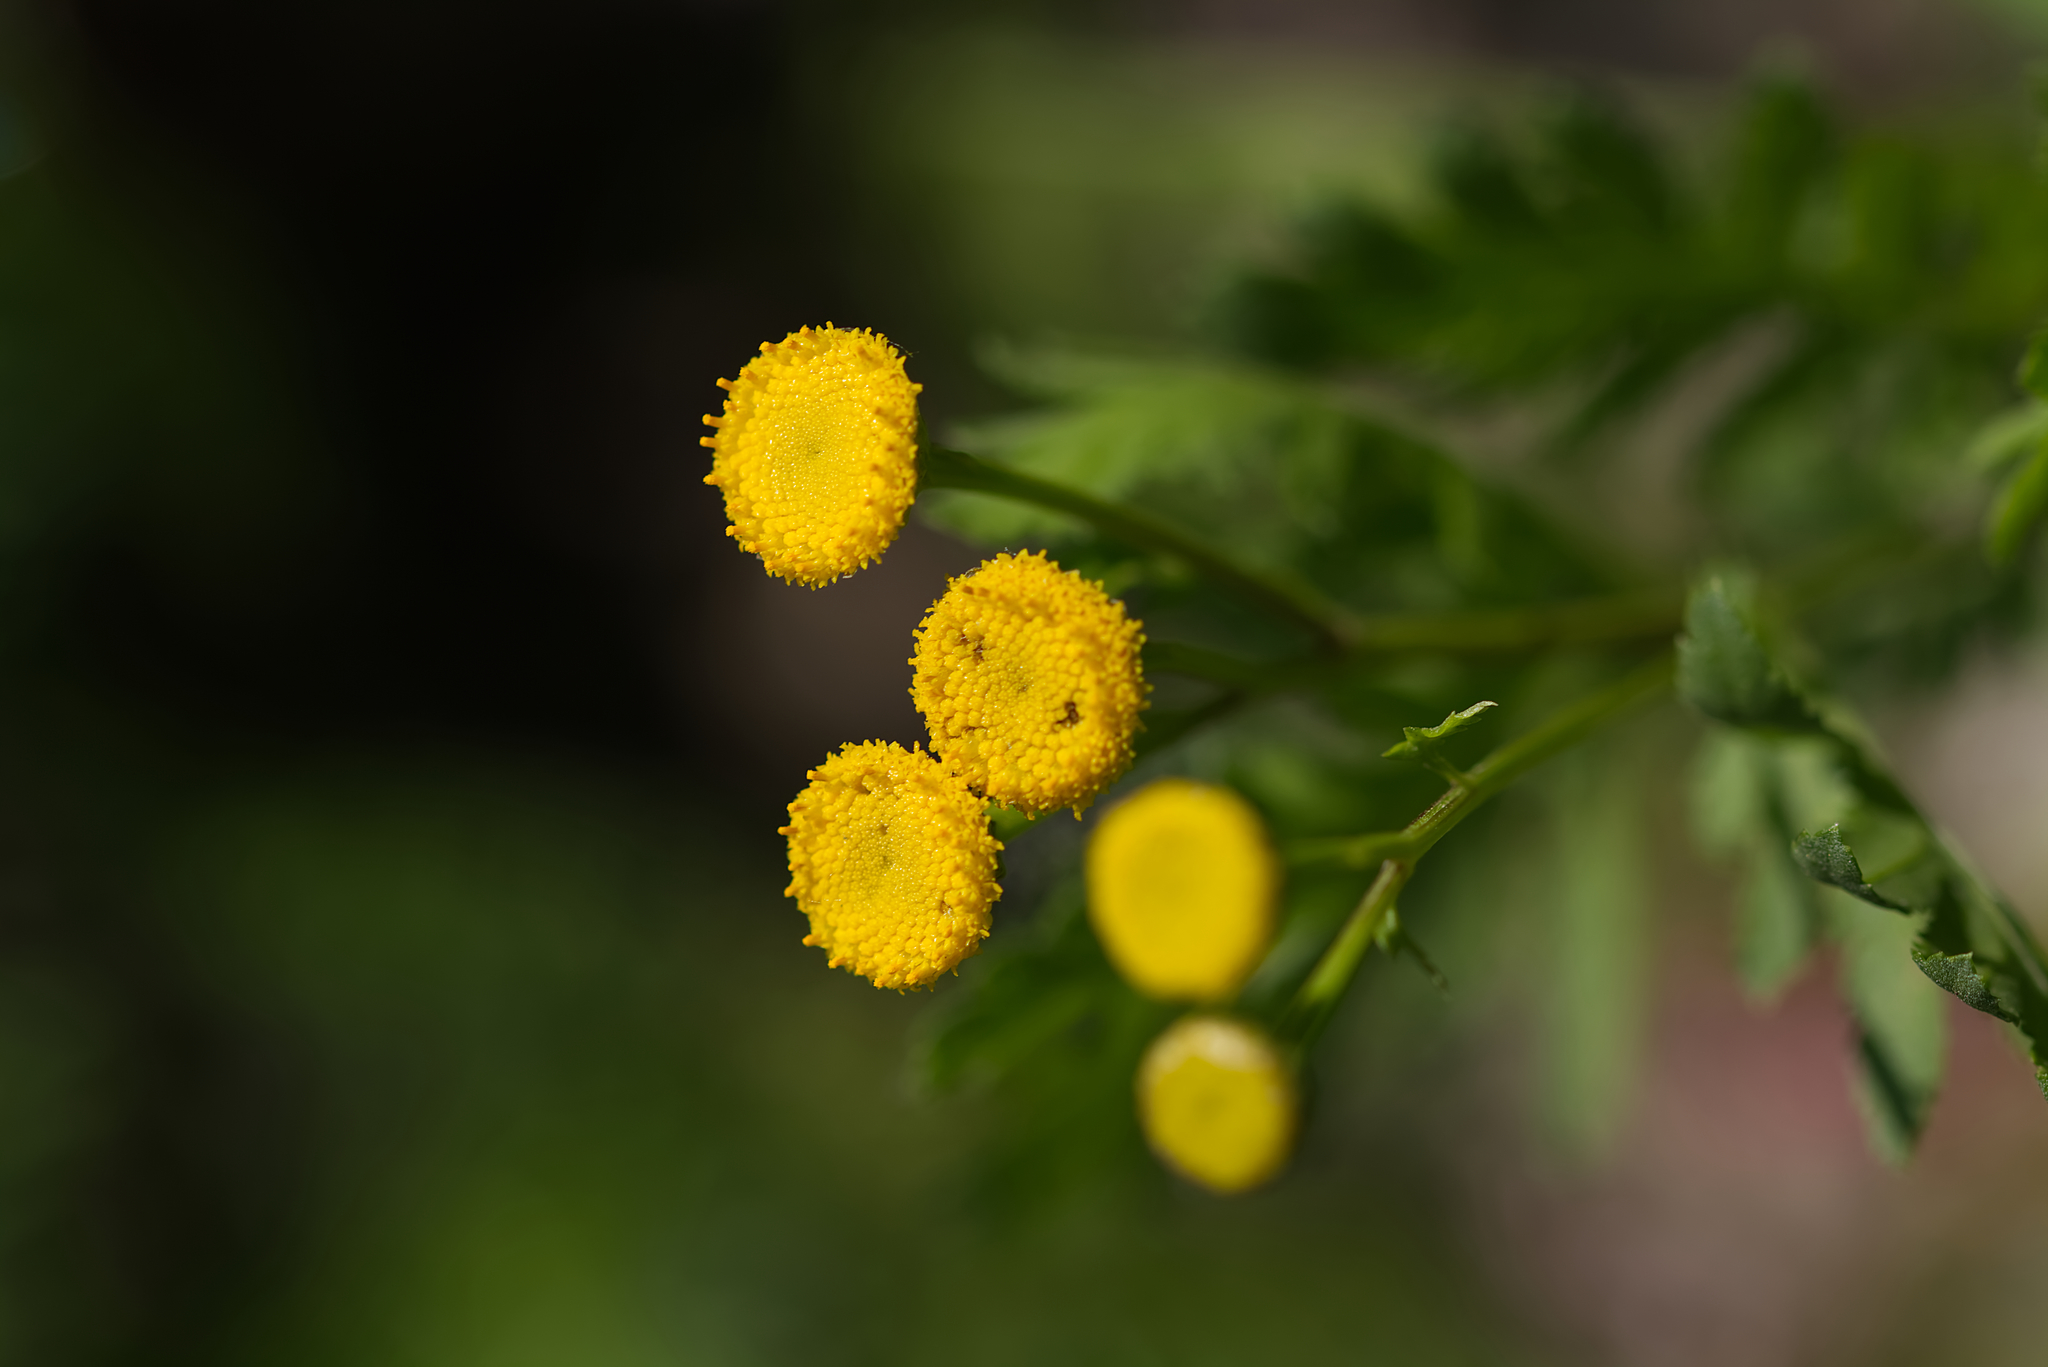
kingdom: Plantae
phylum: Tracheophyta
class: Magnoliopsida
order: Asterales
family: Asteraceae
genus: Tanacetum
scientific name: Tanacetum vulgare
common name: Common tansy
